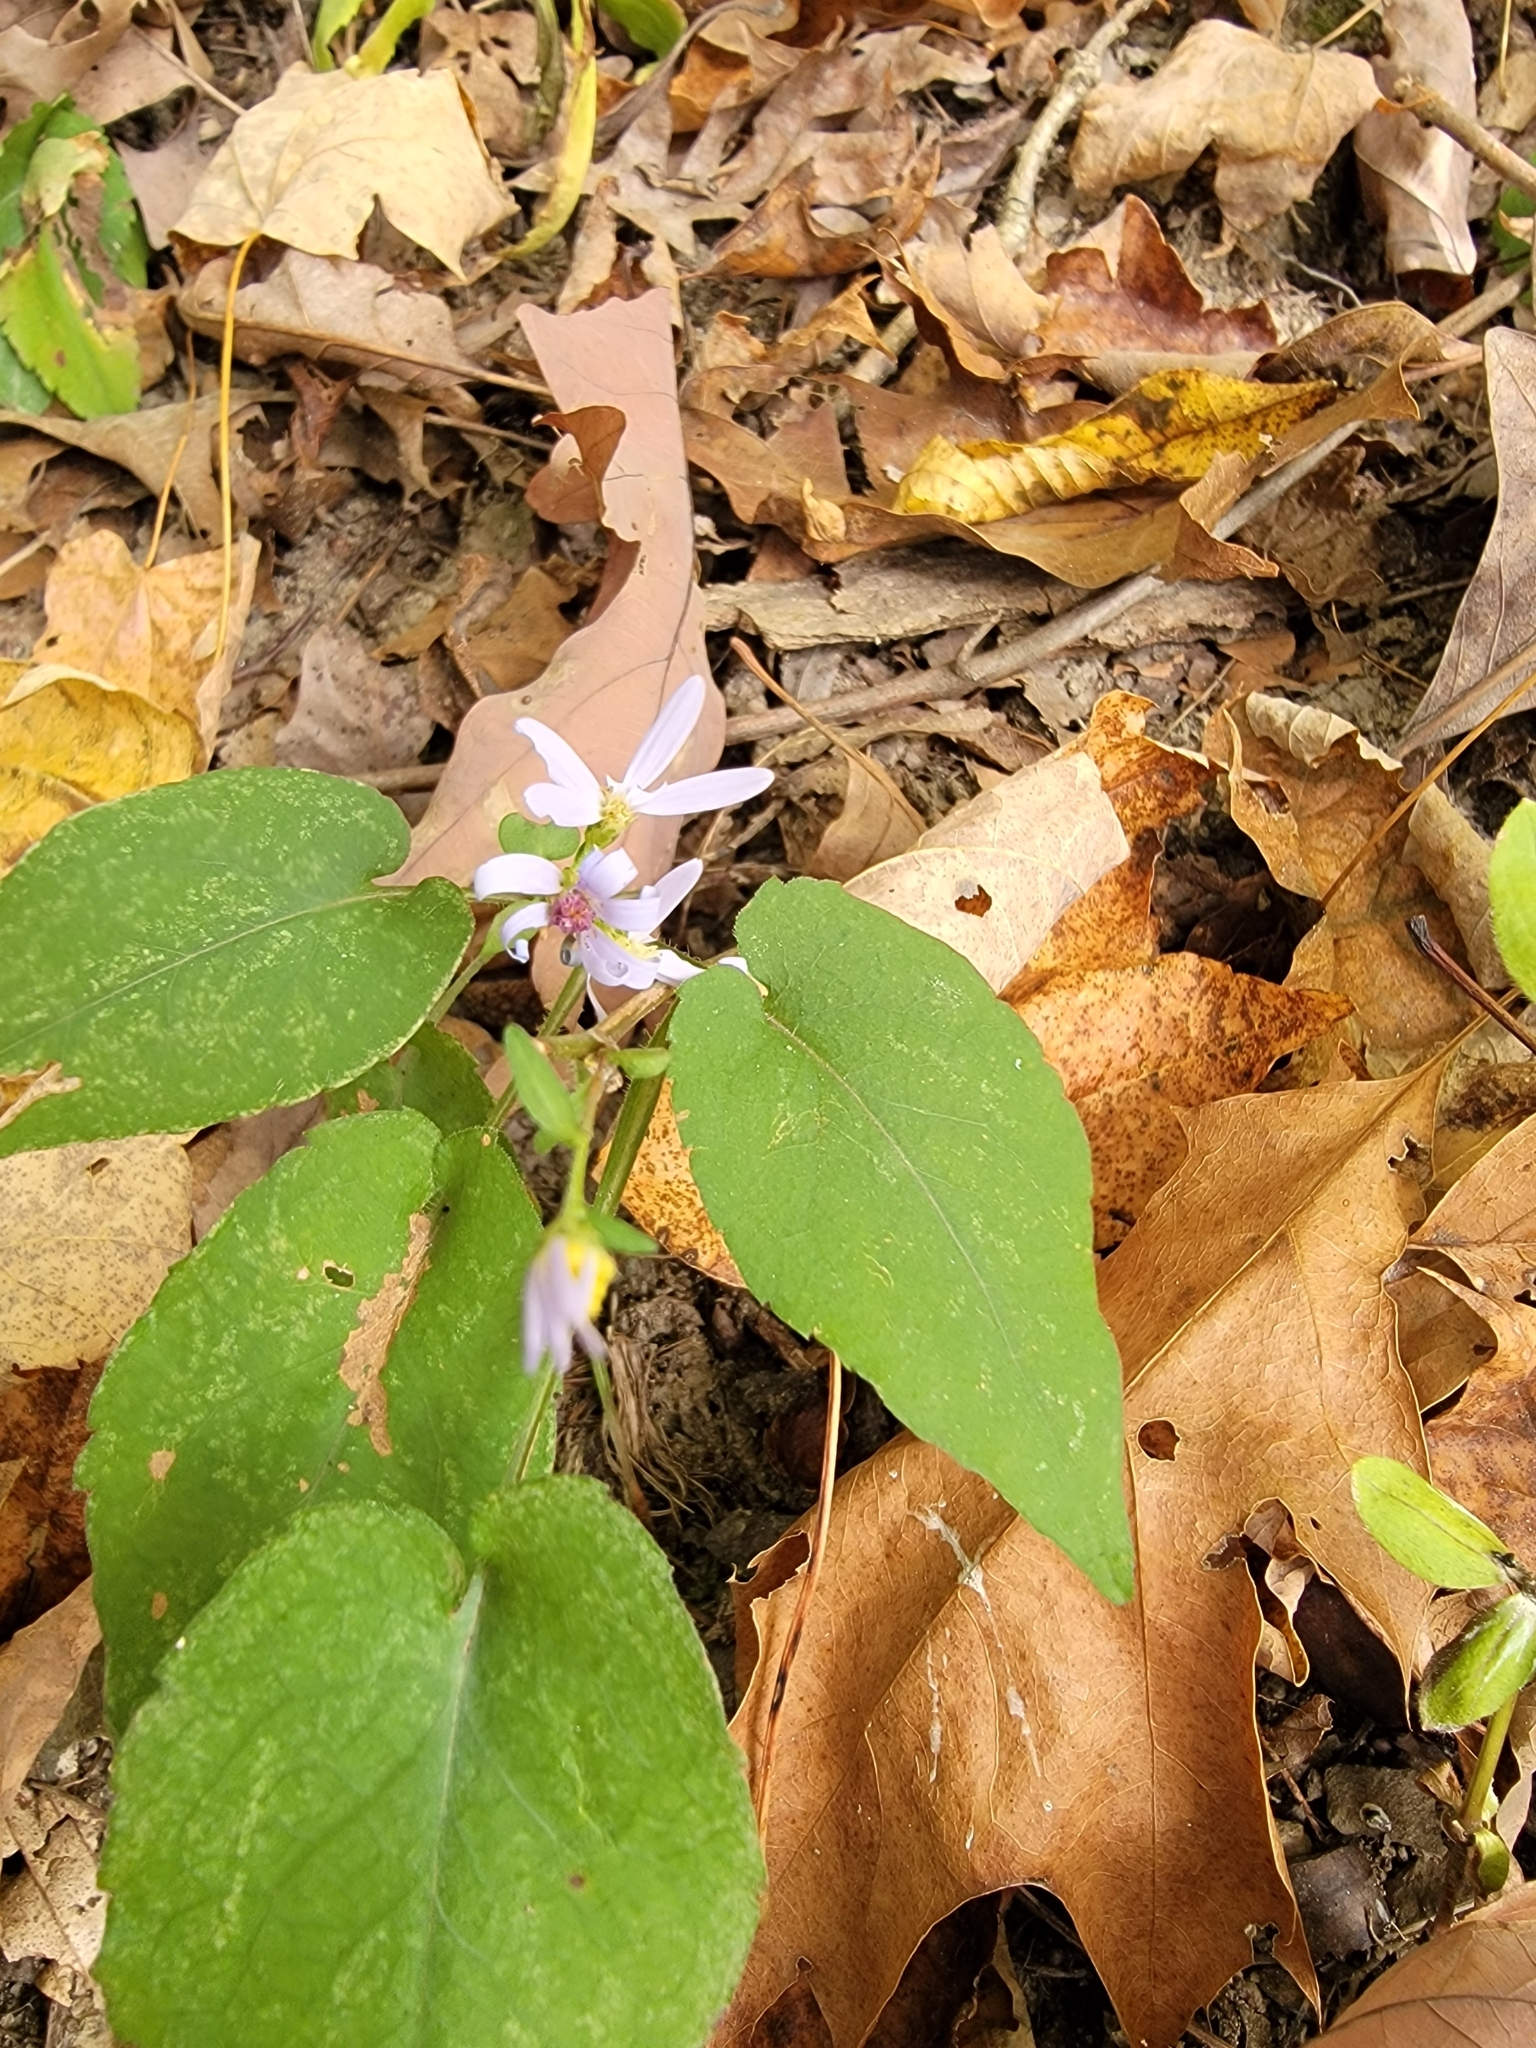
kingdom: Plantae
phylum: Tracheophyta
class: Magnoliopsida
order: Asterales
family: Asteraceae
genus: Symphyotrichum
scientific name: Symphyotrichum shortii
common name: Short's aster
